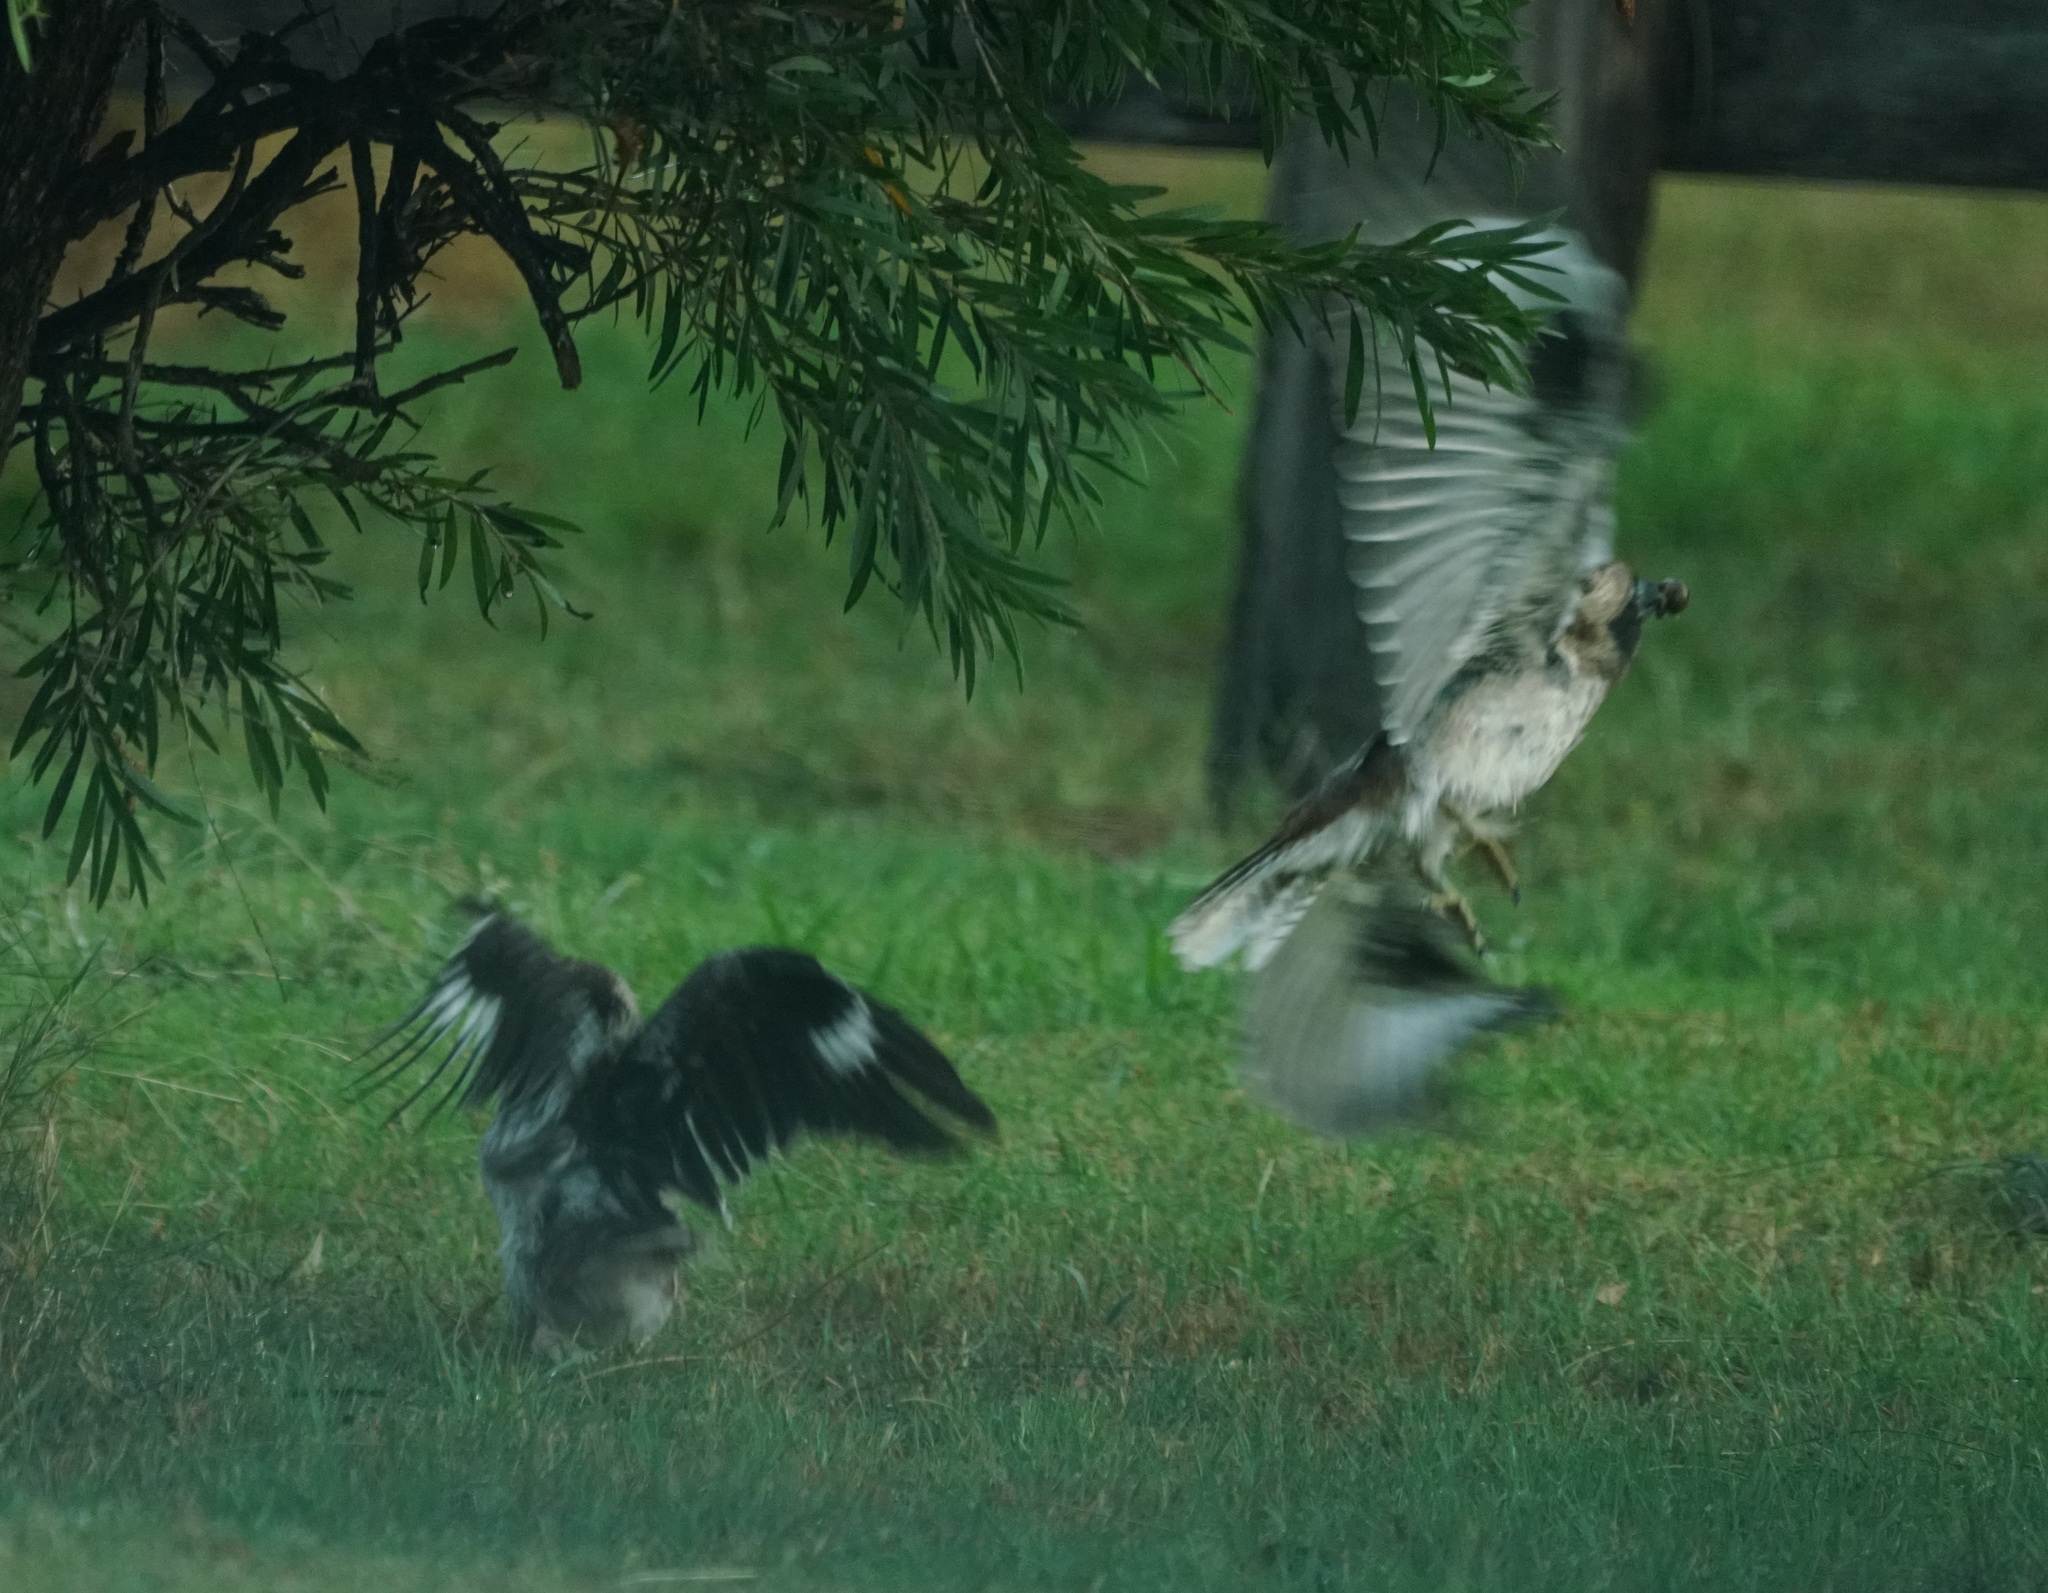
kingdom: Animalia
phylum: Chordata
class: Aves
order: Coraciiformes
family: Alcedinidae
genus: Dacelo
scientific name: Dacelo novaeguineae
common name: Laughing kookaburra
